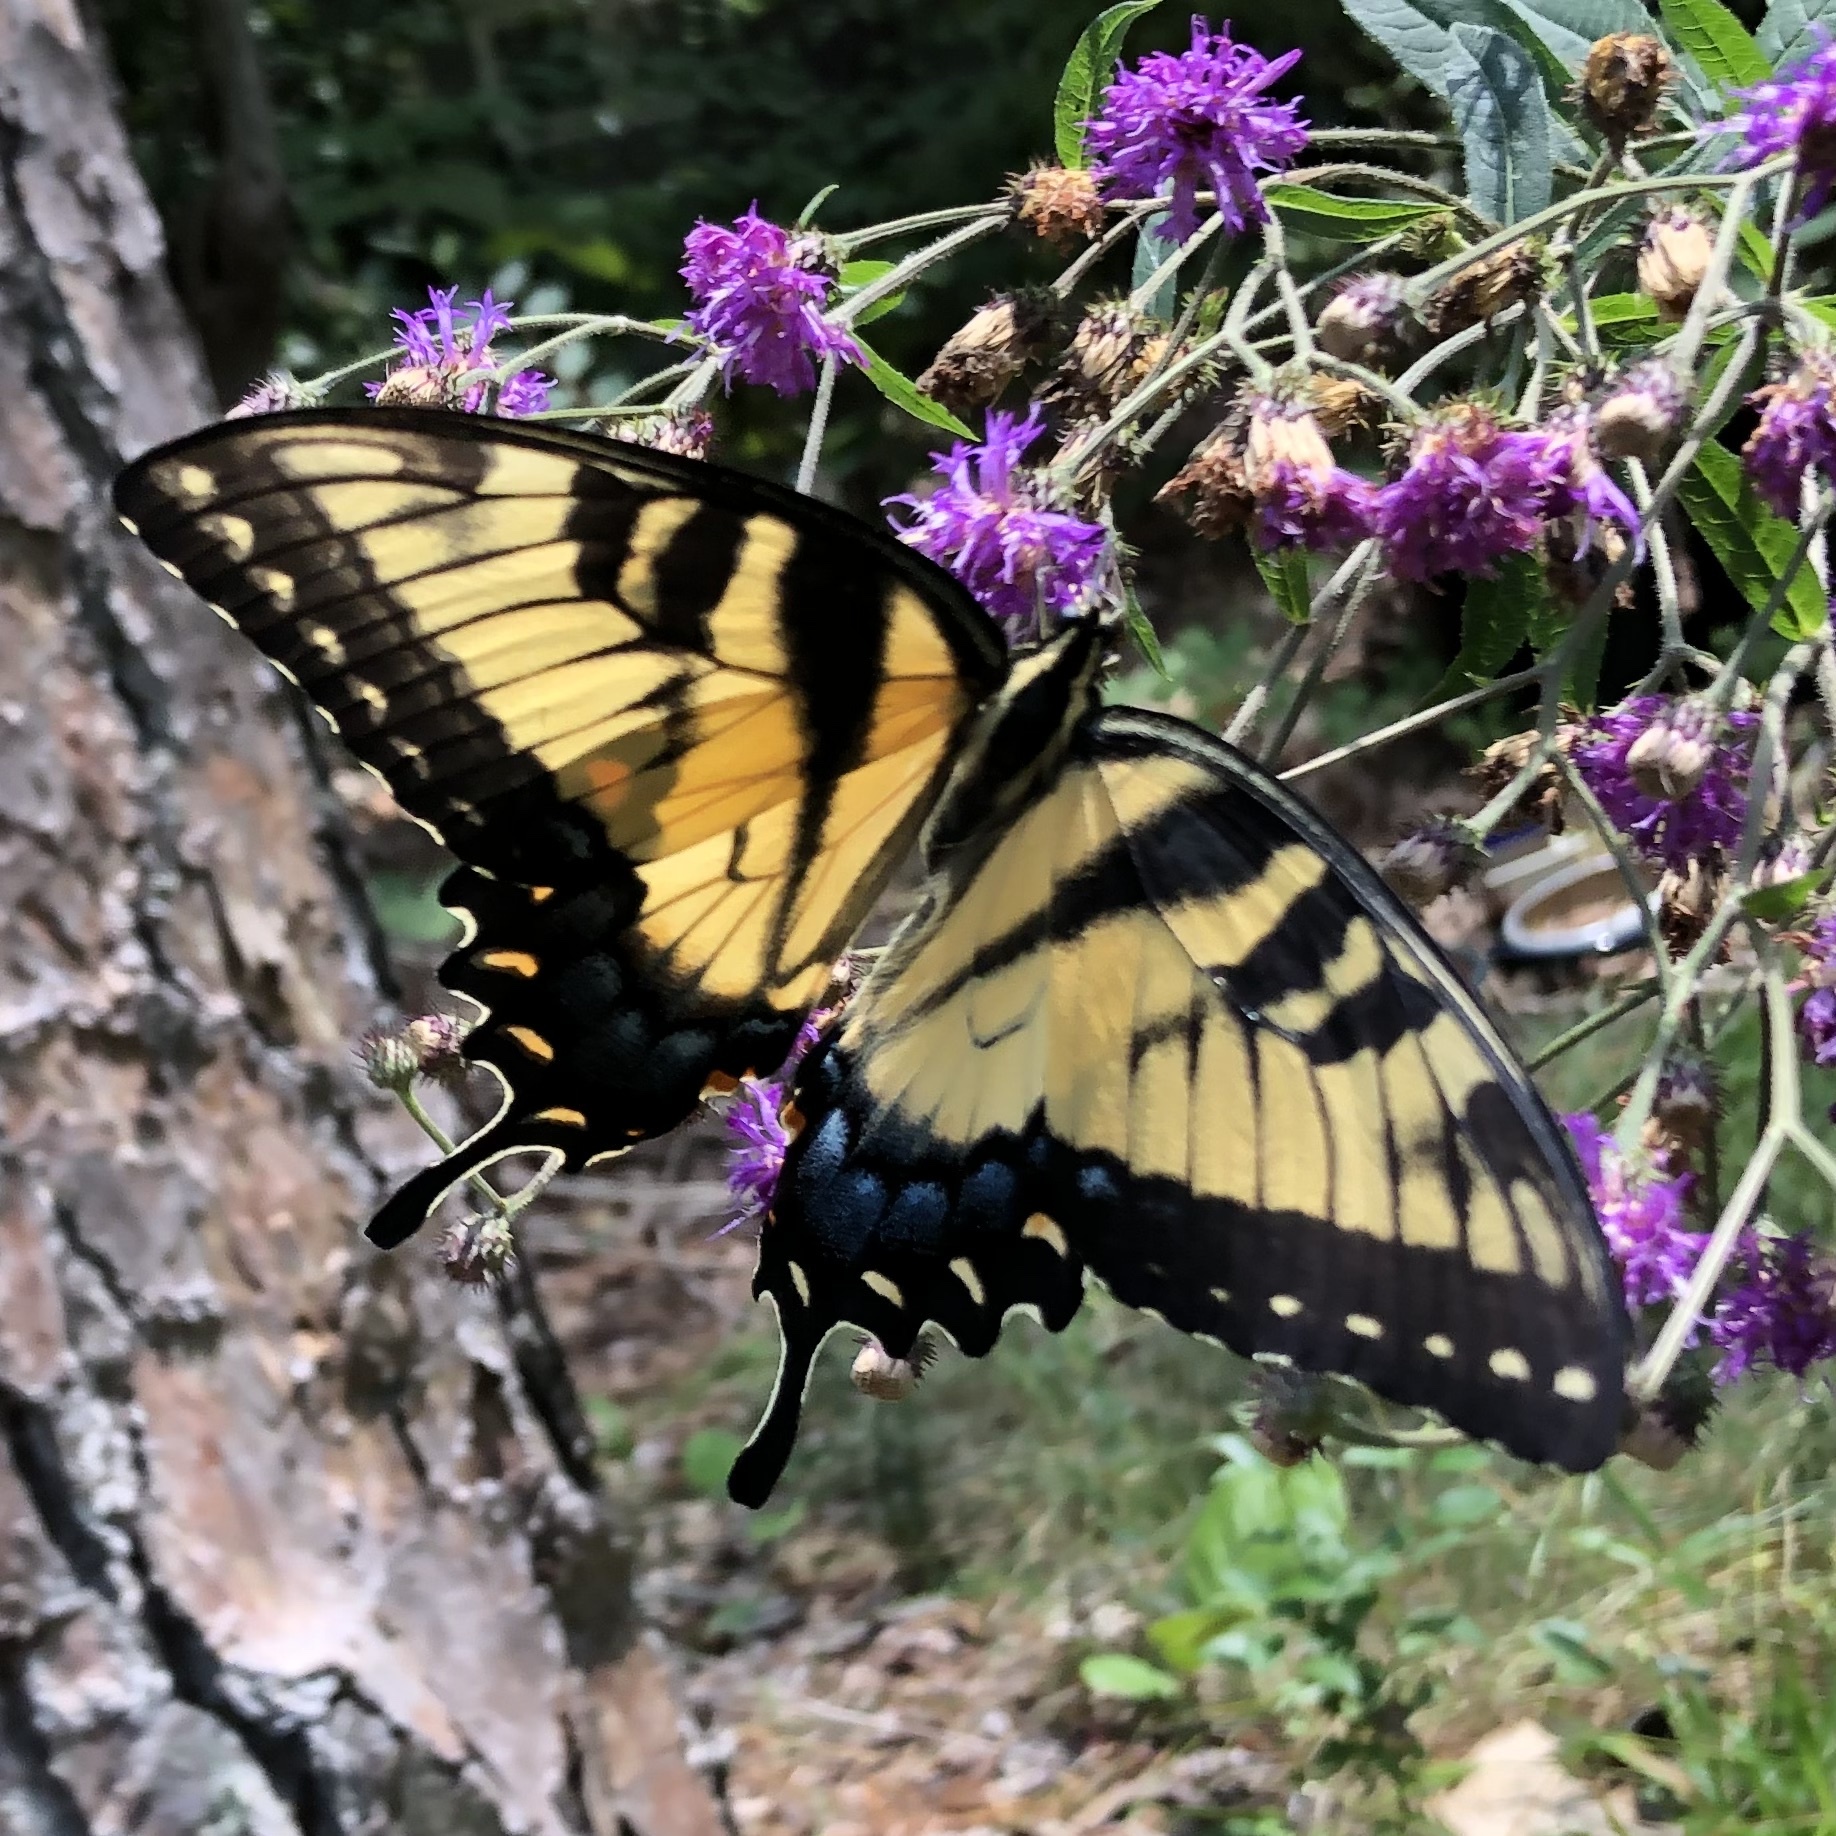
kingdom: Animalia
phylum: Arthropoda
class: Insecta
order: Lepidoptera
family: Papilionidae
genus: Papilio
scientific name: Papilio glaucus
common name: Tiger swallowtail
